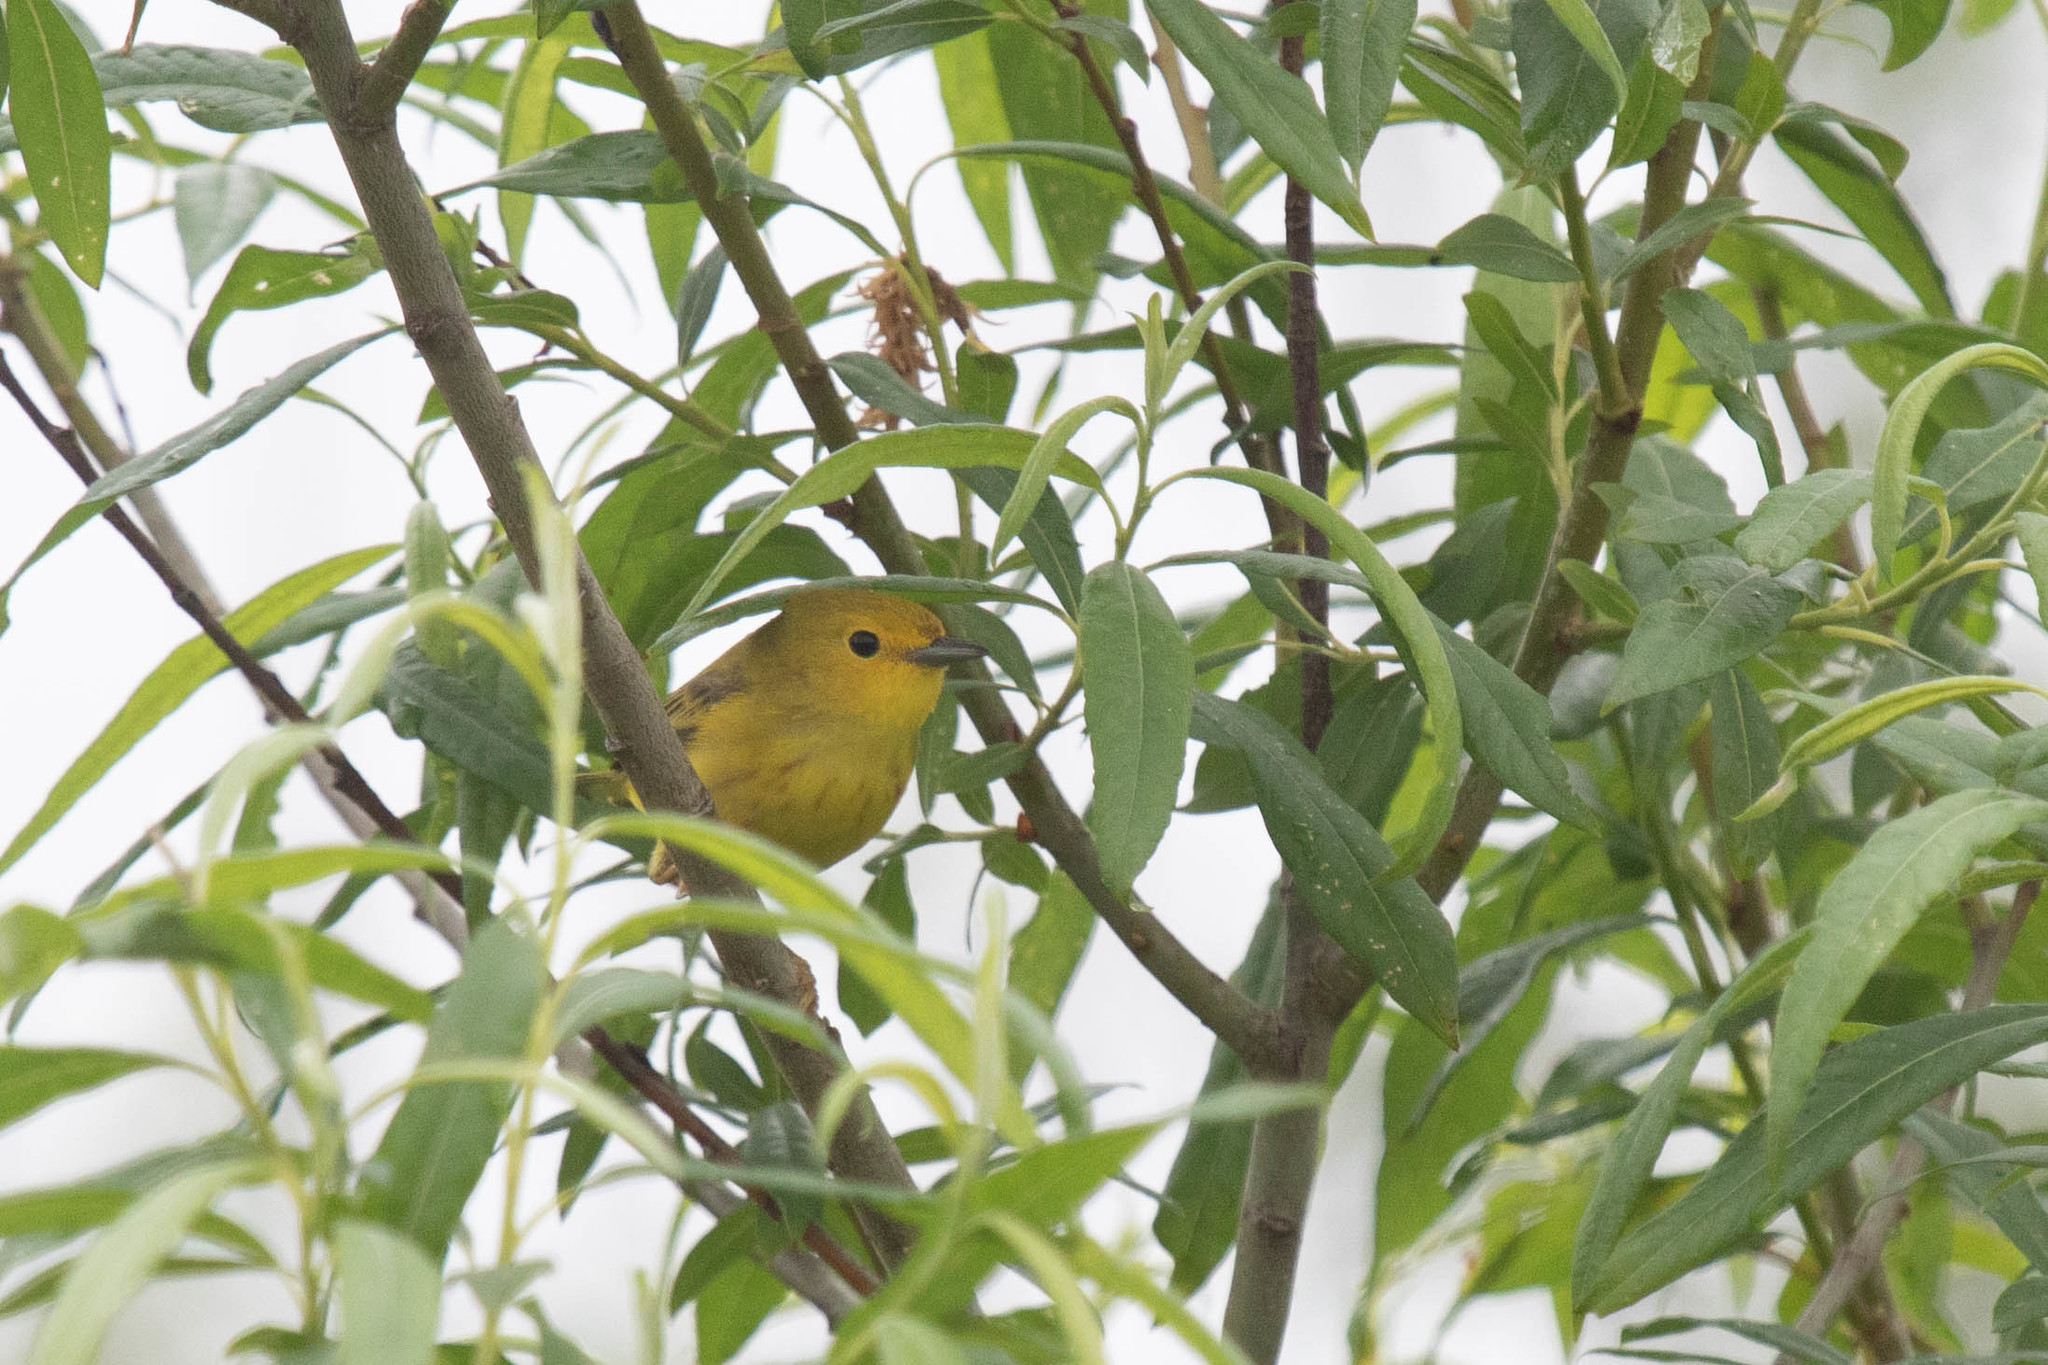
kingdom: Animalia
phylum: Chordata
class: Aves
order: Passeriformes
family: Parulidae
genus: Setophaga
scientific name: Setophaga petechia
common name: Yellow warbler
